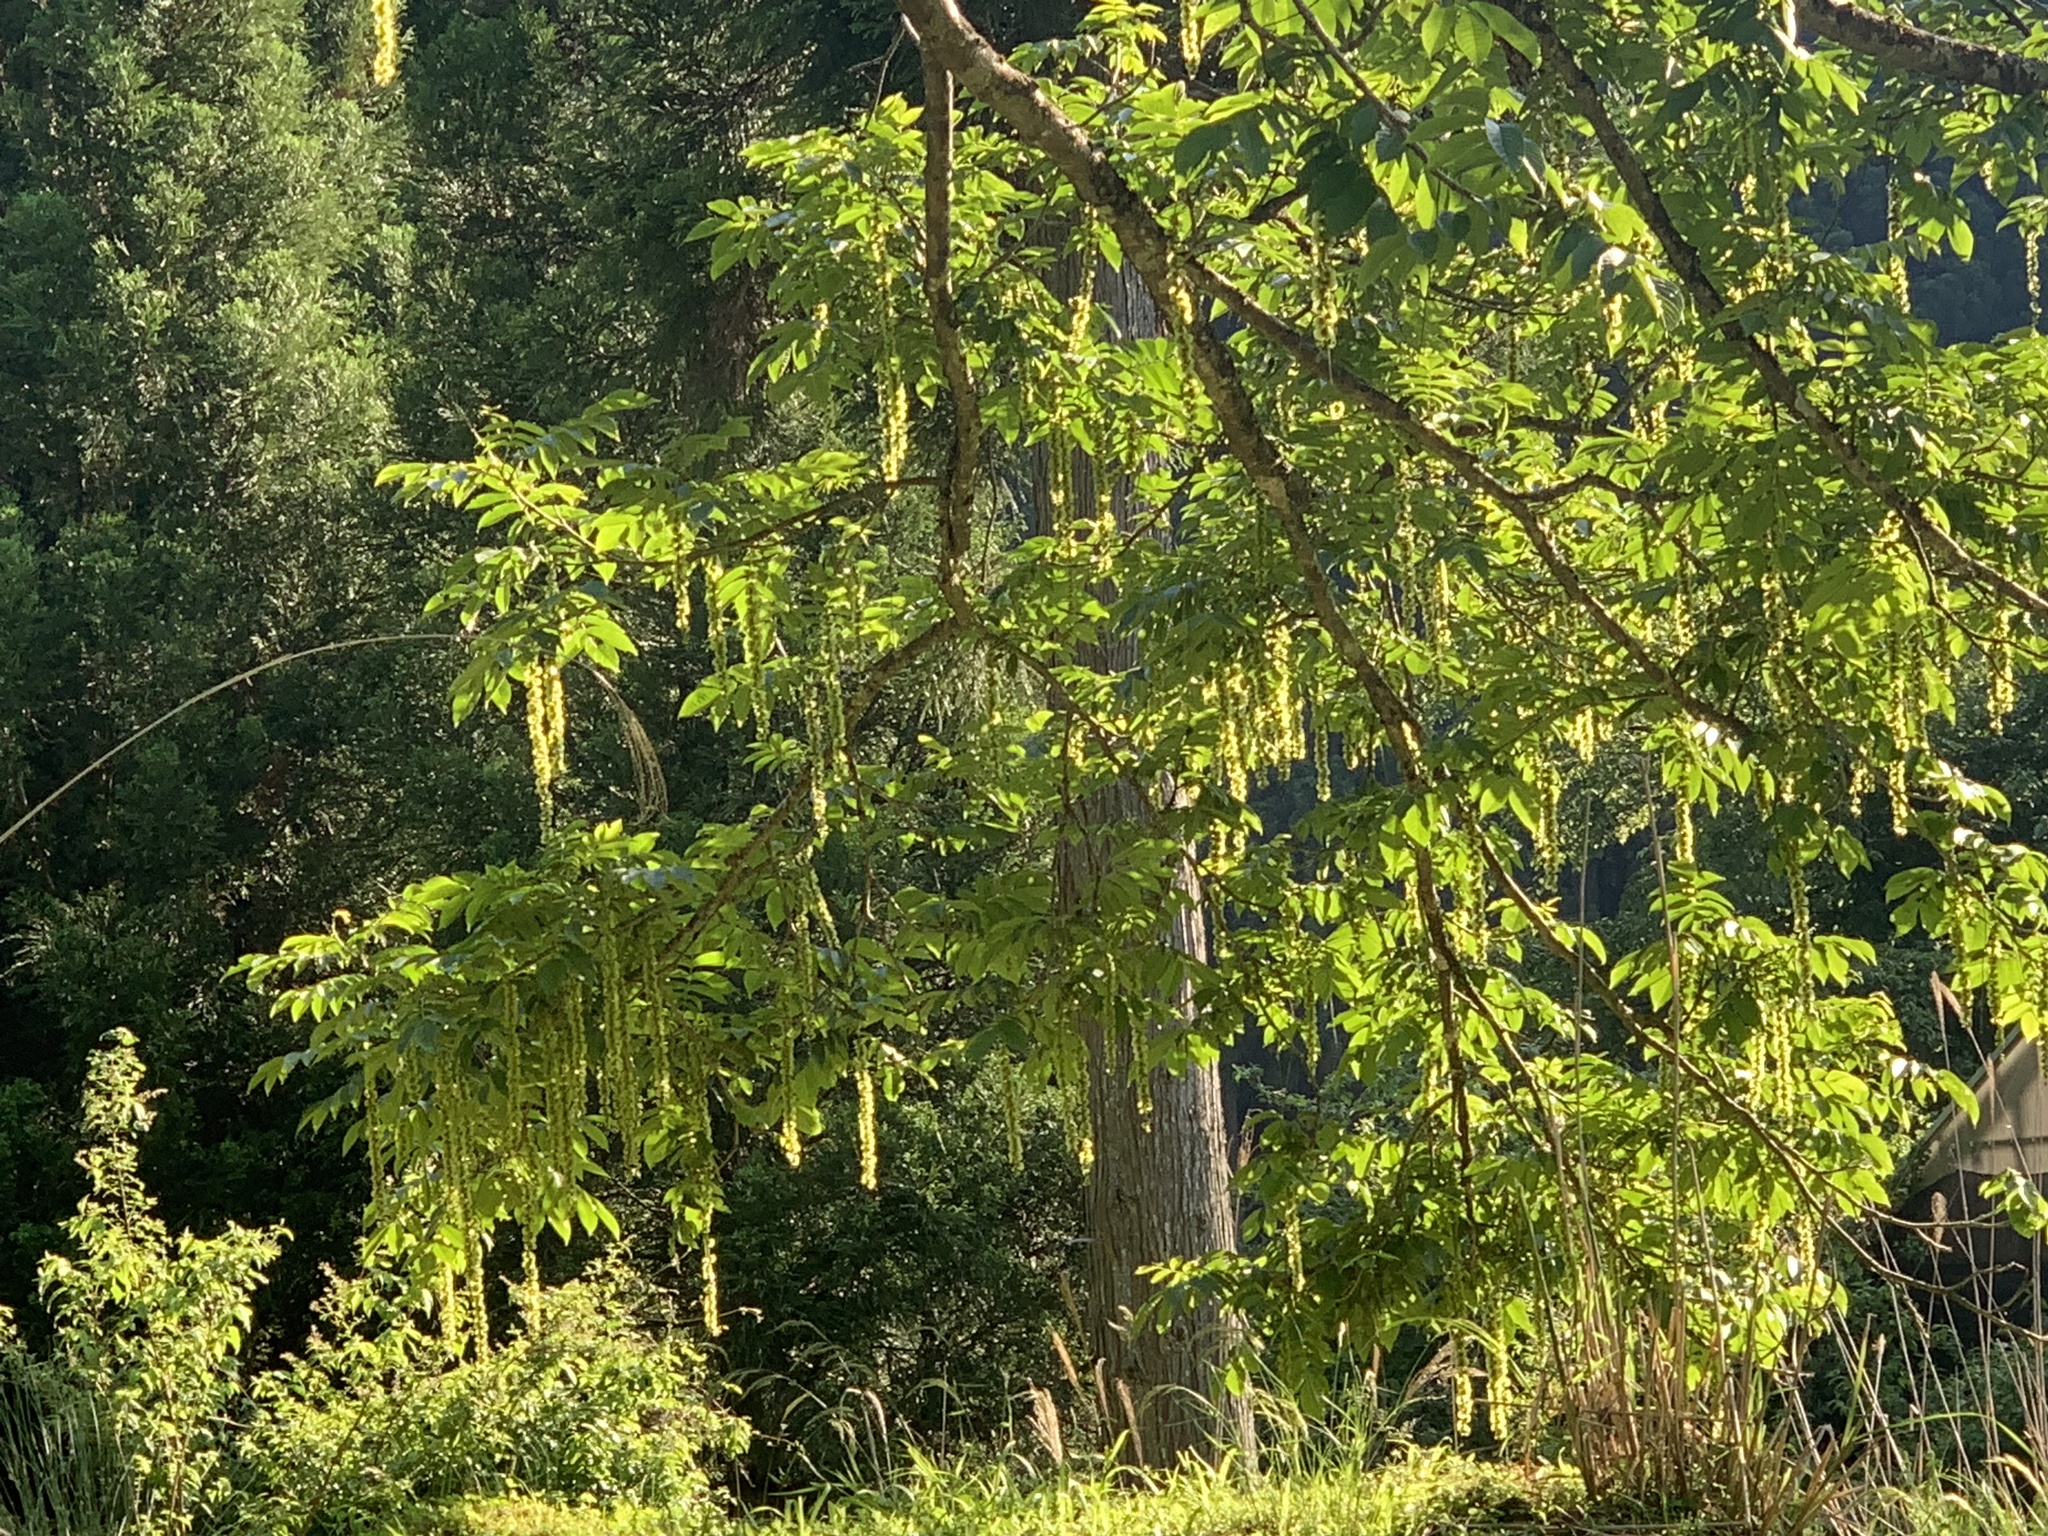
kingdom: Plantae
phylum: Tracheophyta
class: Magnoliopsida
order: Fagales
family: Juglandaceae
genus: Pterocarya
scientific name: Pterocarya rhoifolia
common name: Japanese wingnut
